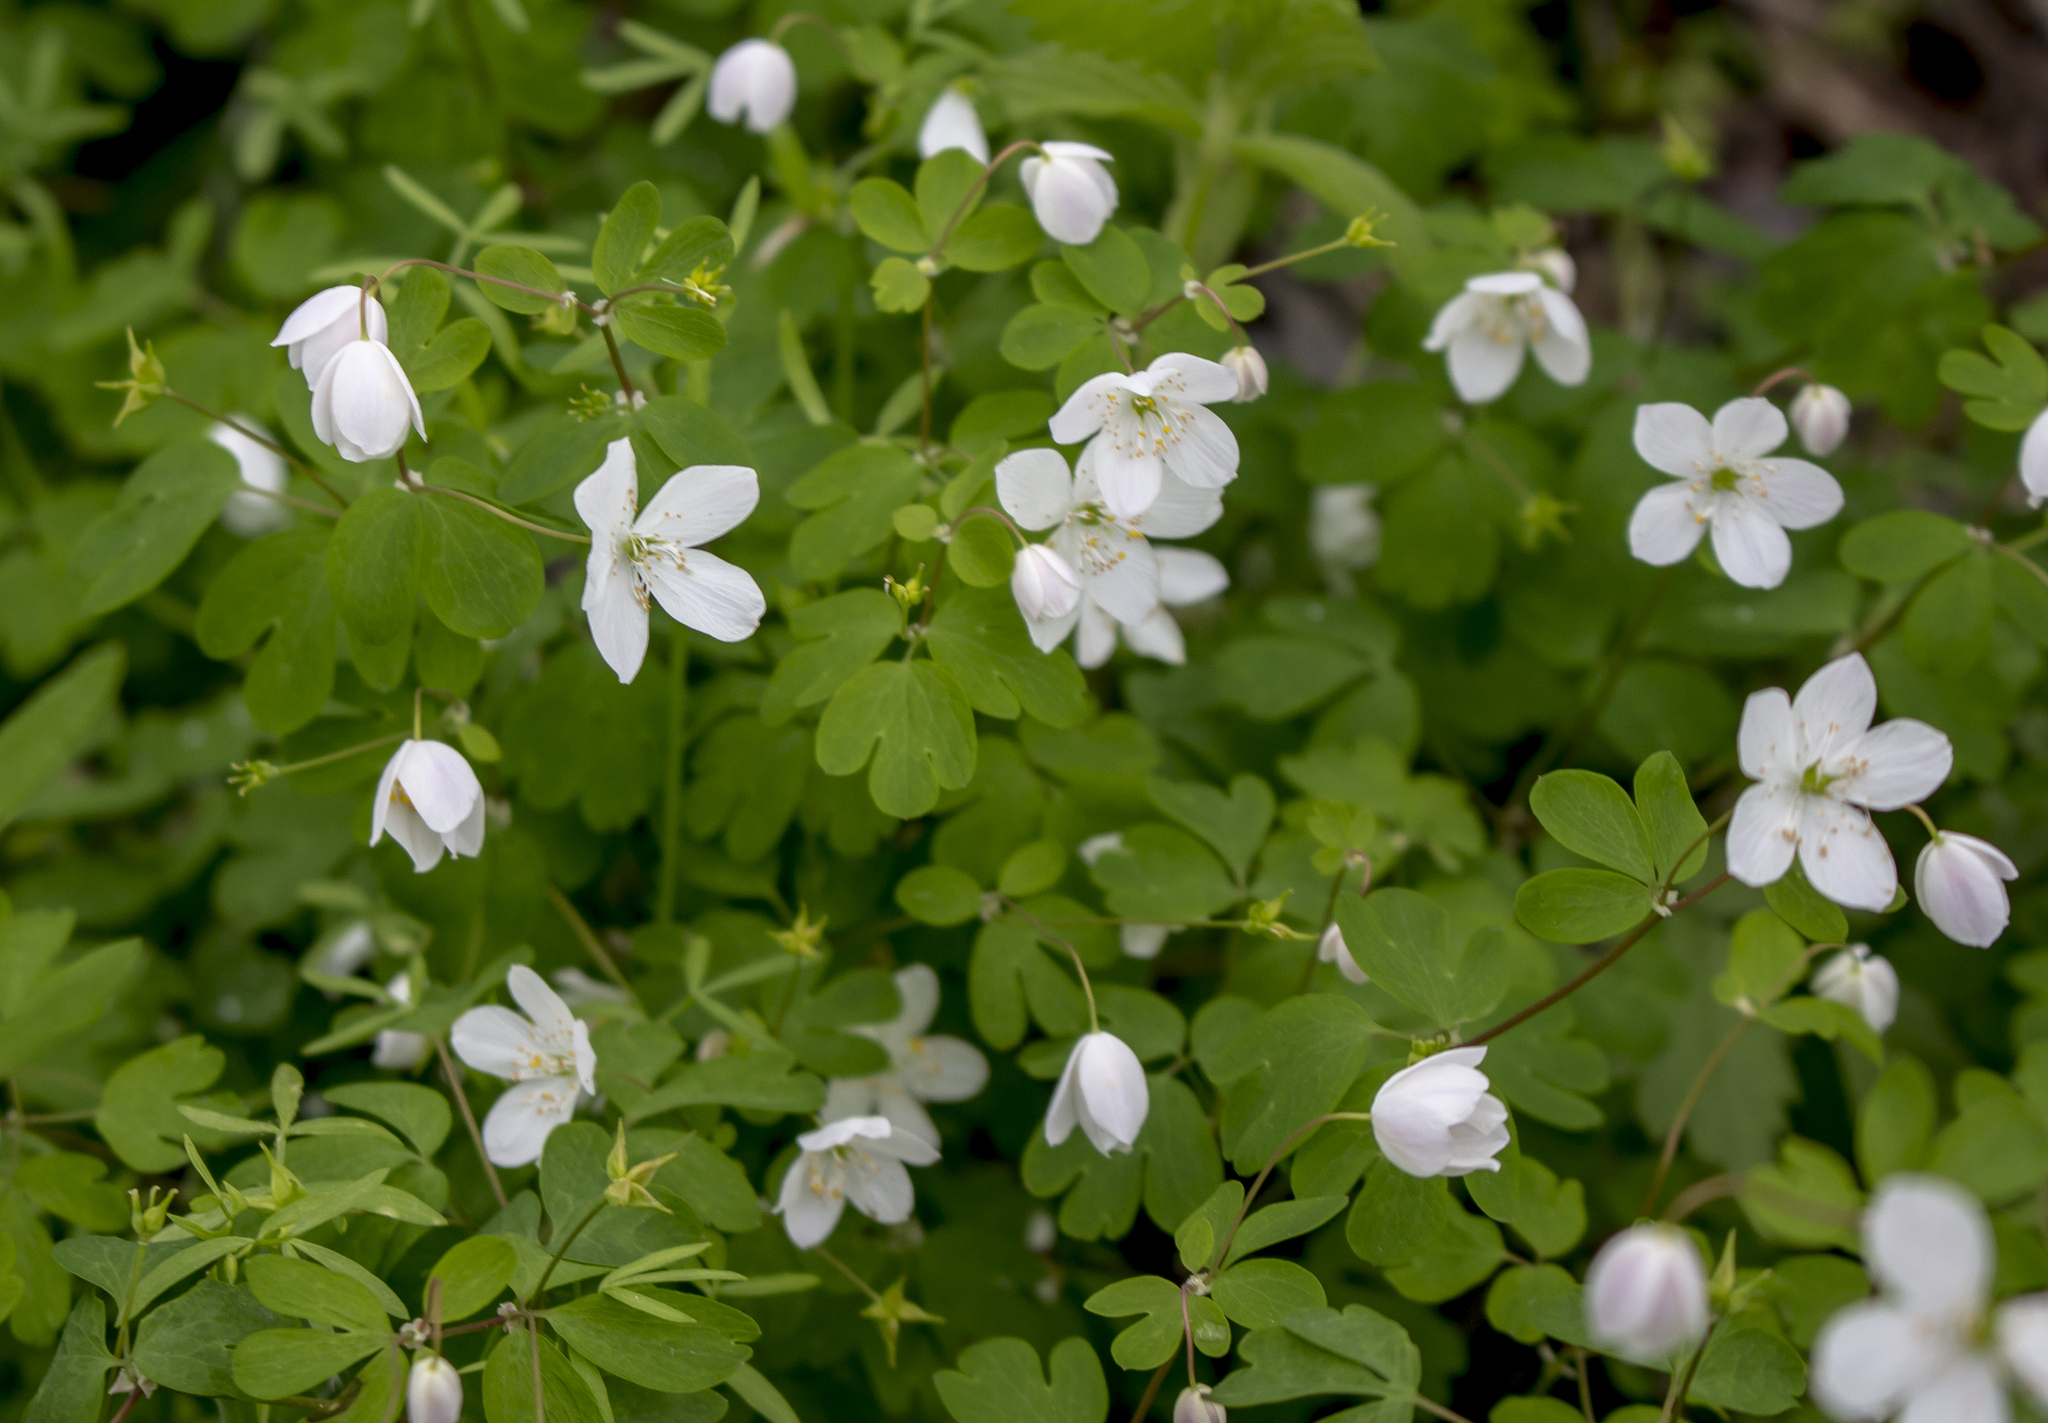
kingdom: Plantae
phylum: Tracheophyta
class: Magnoliopsida
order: Ranunculales
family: Ranunculaceae
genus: Enemion
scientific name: Enemion biternatum
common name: Eastern false rue-anemone
